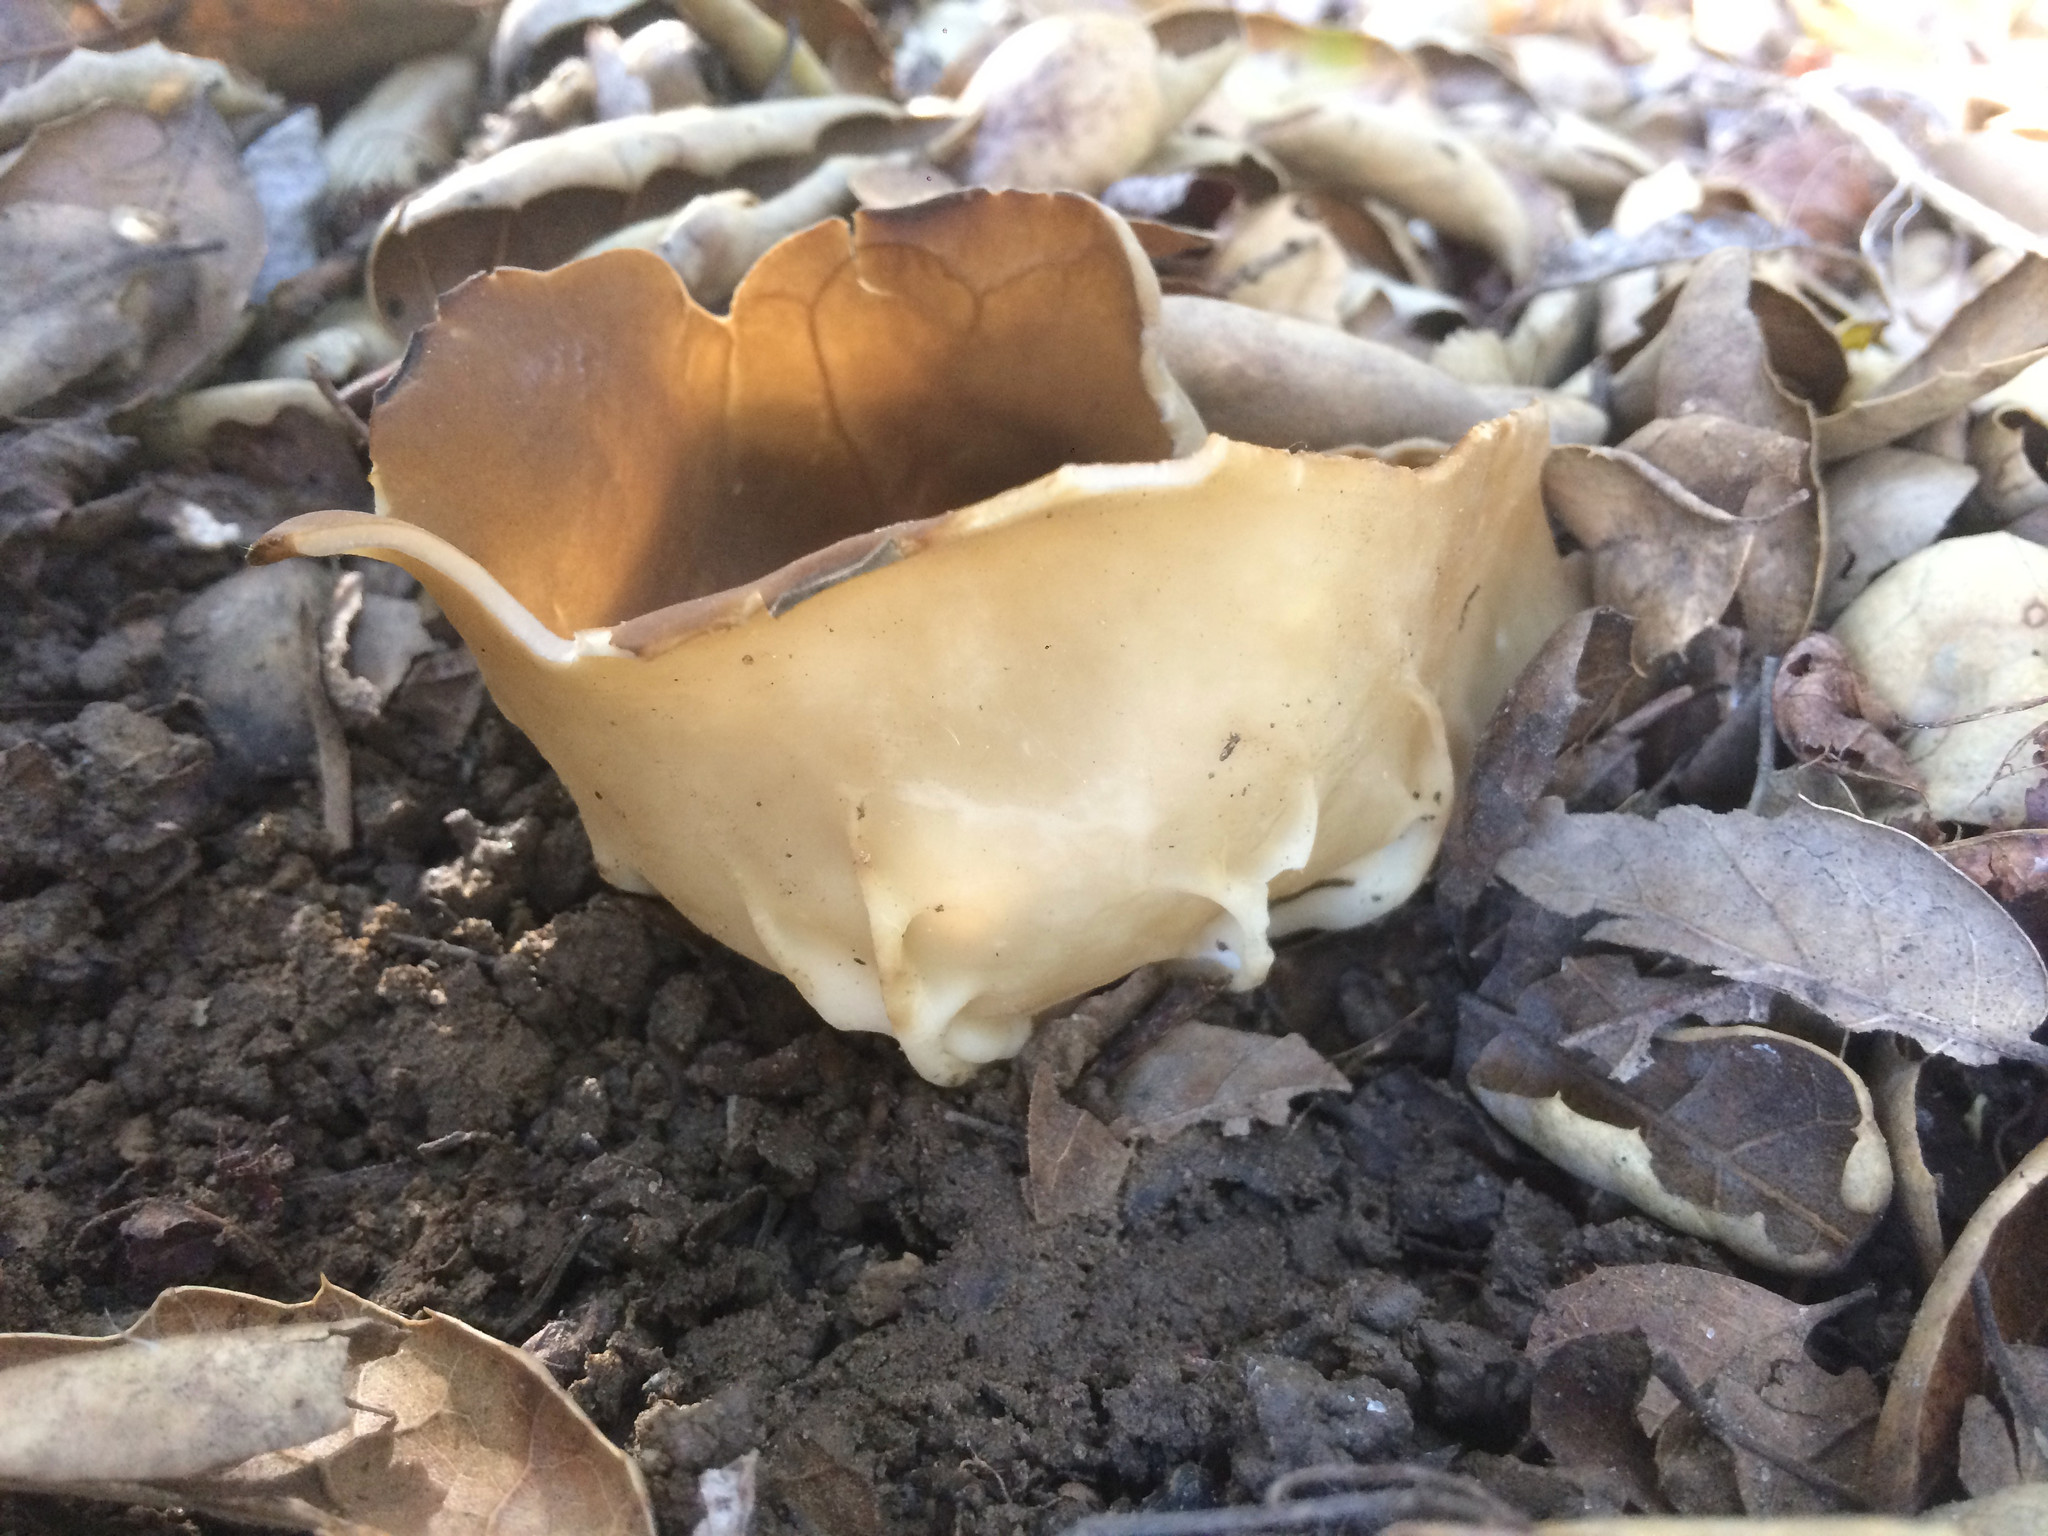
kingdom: Fungi
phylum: Ascomycota
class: Pezizomycetes
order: Pezizales
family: Helvellaceae
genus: Helvella
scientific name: Helvella acetabulum
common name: Vinegar cup
